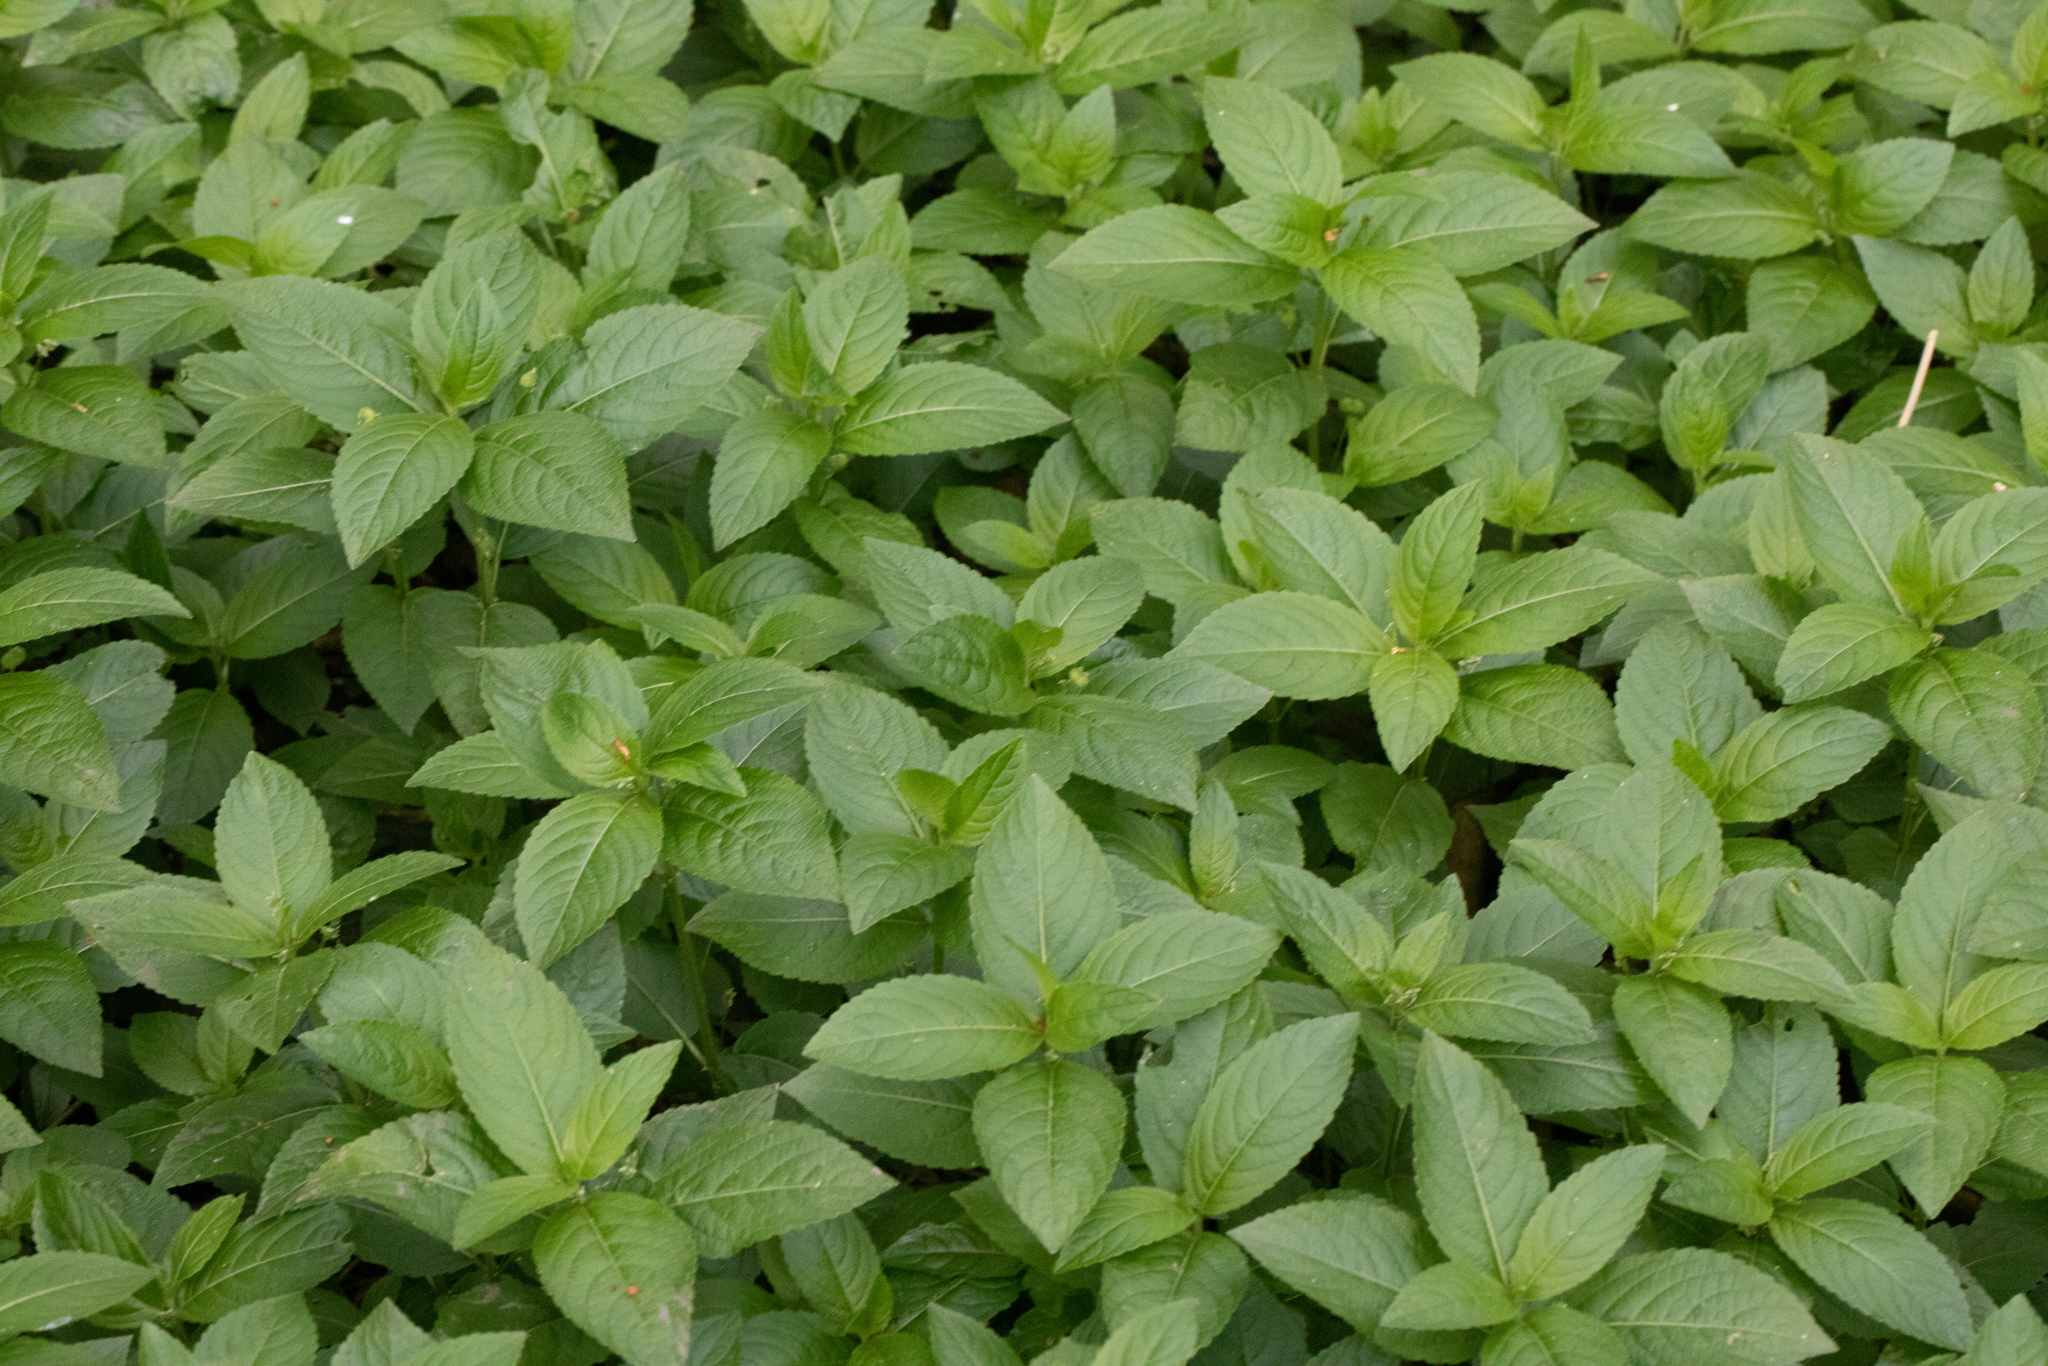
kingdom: Plantae
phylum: Tracheophyta
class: Magnoliopsida
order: Malpighiales
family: Euphorbiaceae
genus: Mercurialis
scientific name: Mercurialis perennis
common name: Dog mercury
